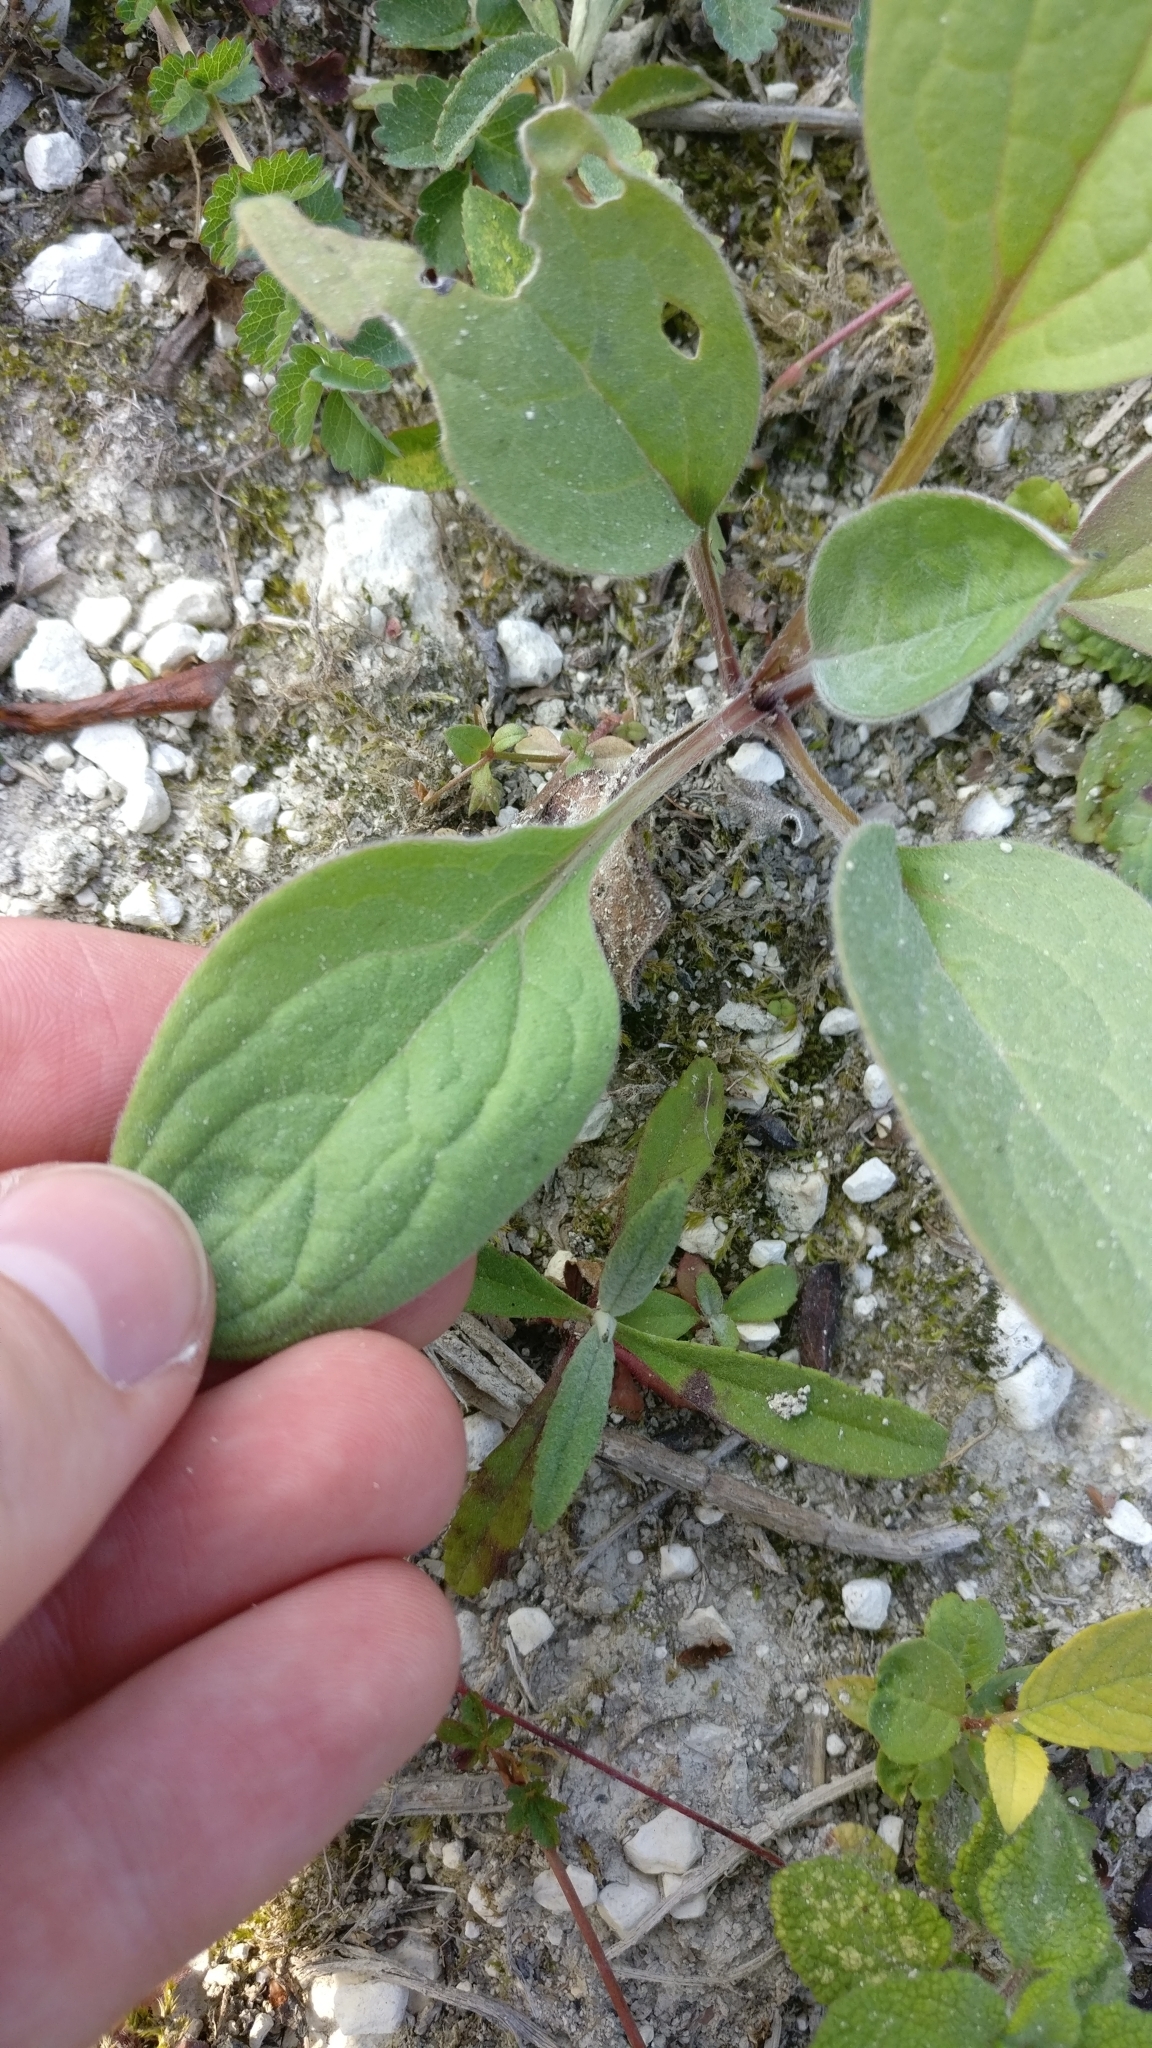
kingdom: Plantae
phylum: Tracheophyta
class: Magnoliopsida
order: Boraginales
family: Boraginaceae
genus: Cynoglossum
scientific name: Cynoglossum officinale
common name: Hound's-tongue
